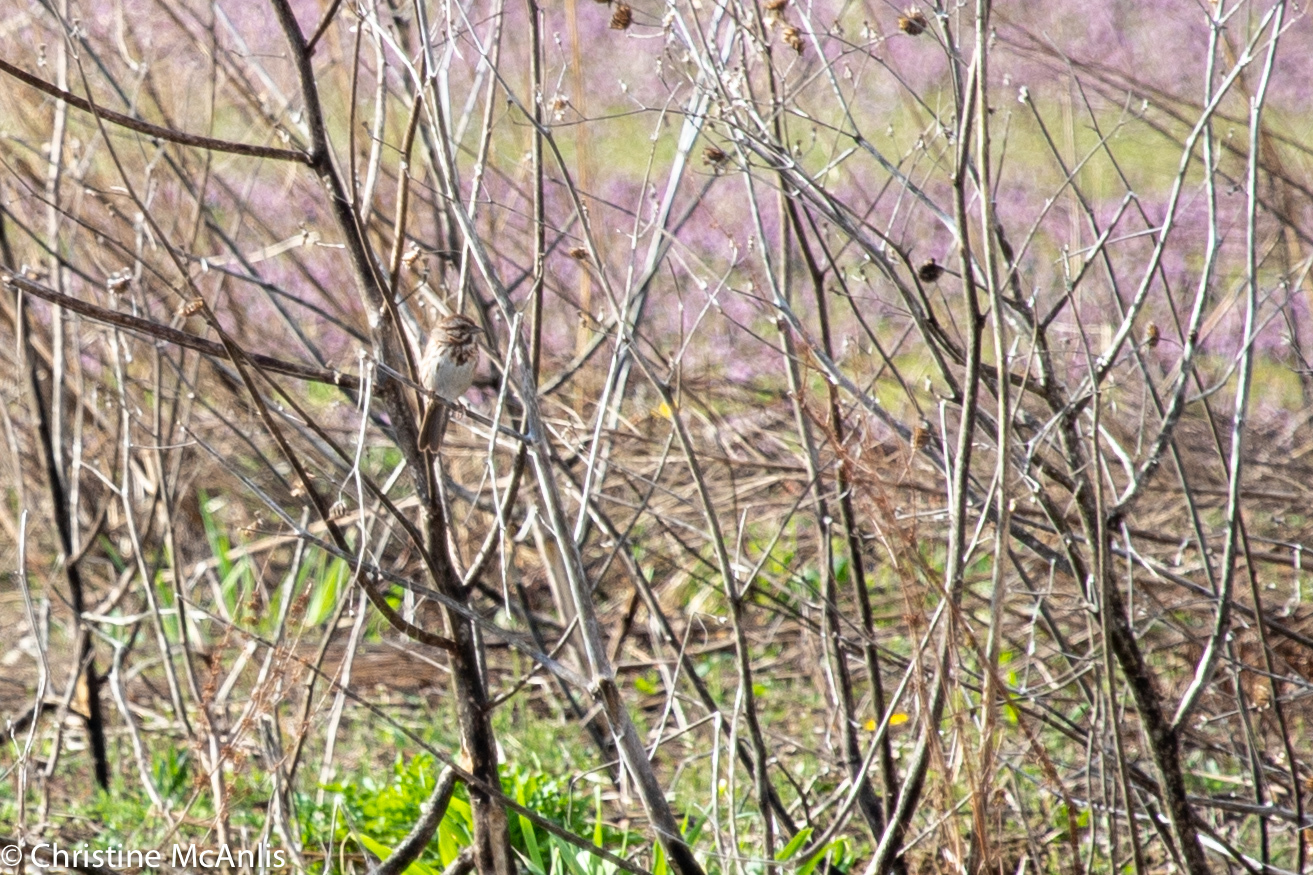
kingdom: Animalia
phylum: Chordata
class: Aves
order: Passeriformes
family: Passerellidae
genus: Melospiza
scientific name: Melospiza melodia
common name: Song sparrow
